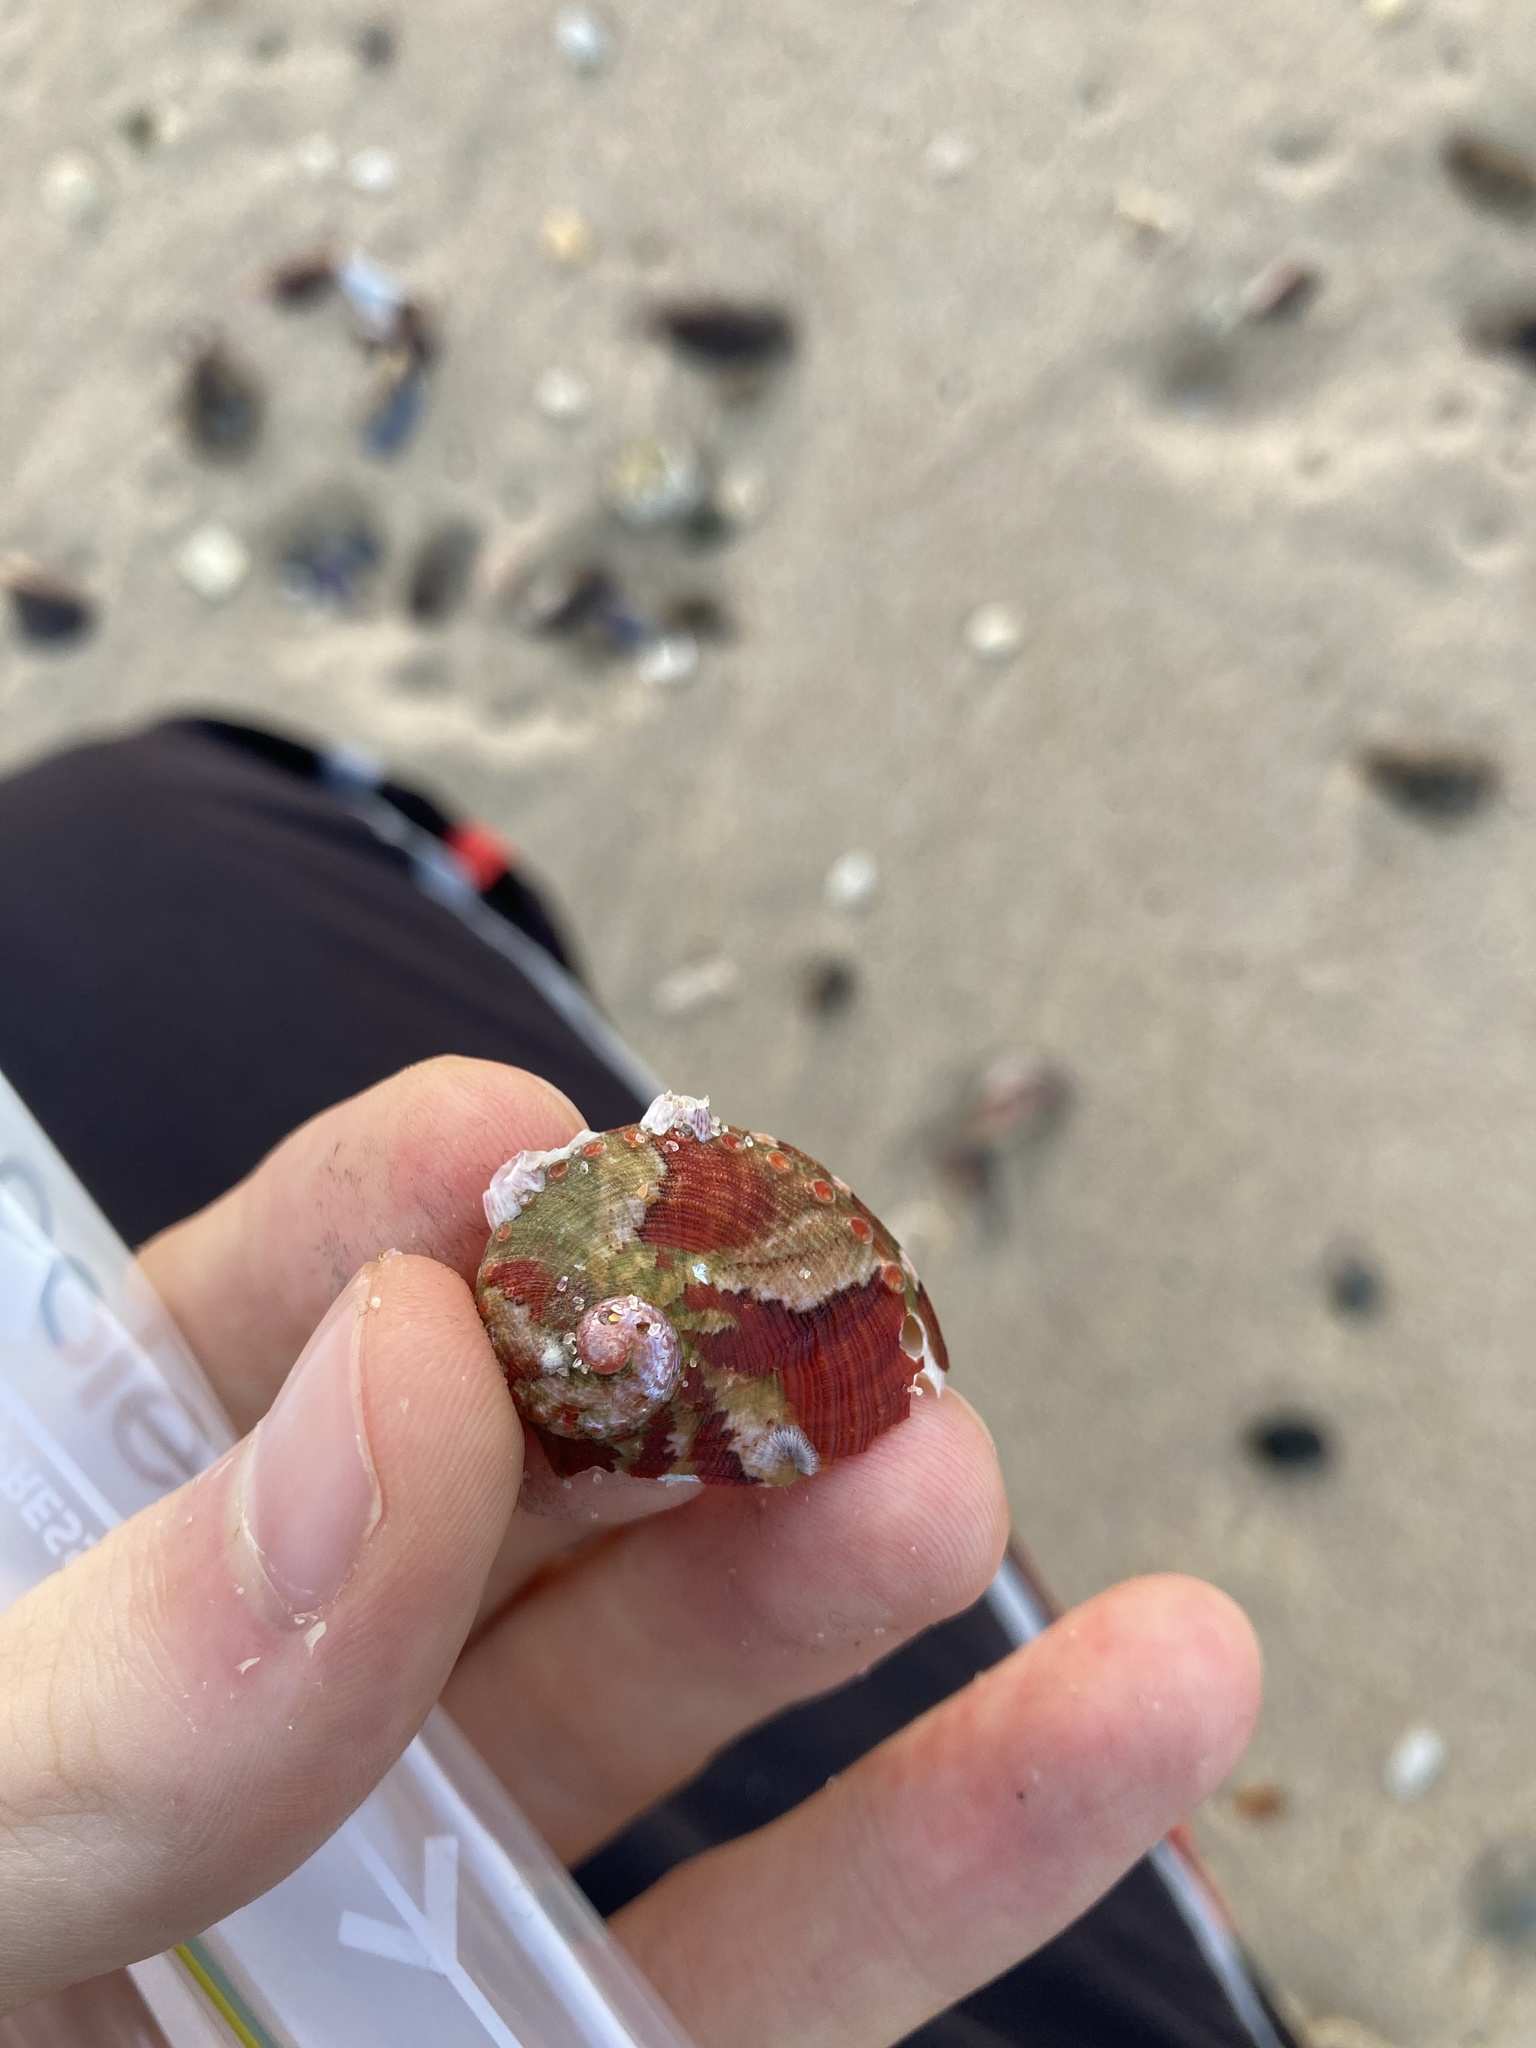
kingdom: Animalia
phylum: Mollusca
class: Gastropoda
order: Lepetellida
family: Haliotidae
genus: Haliotis
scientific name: Haliotis coccoradiata
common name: Reddish-rayed abalone
